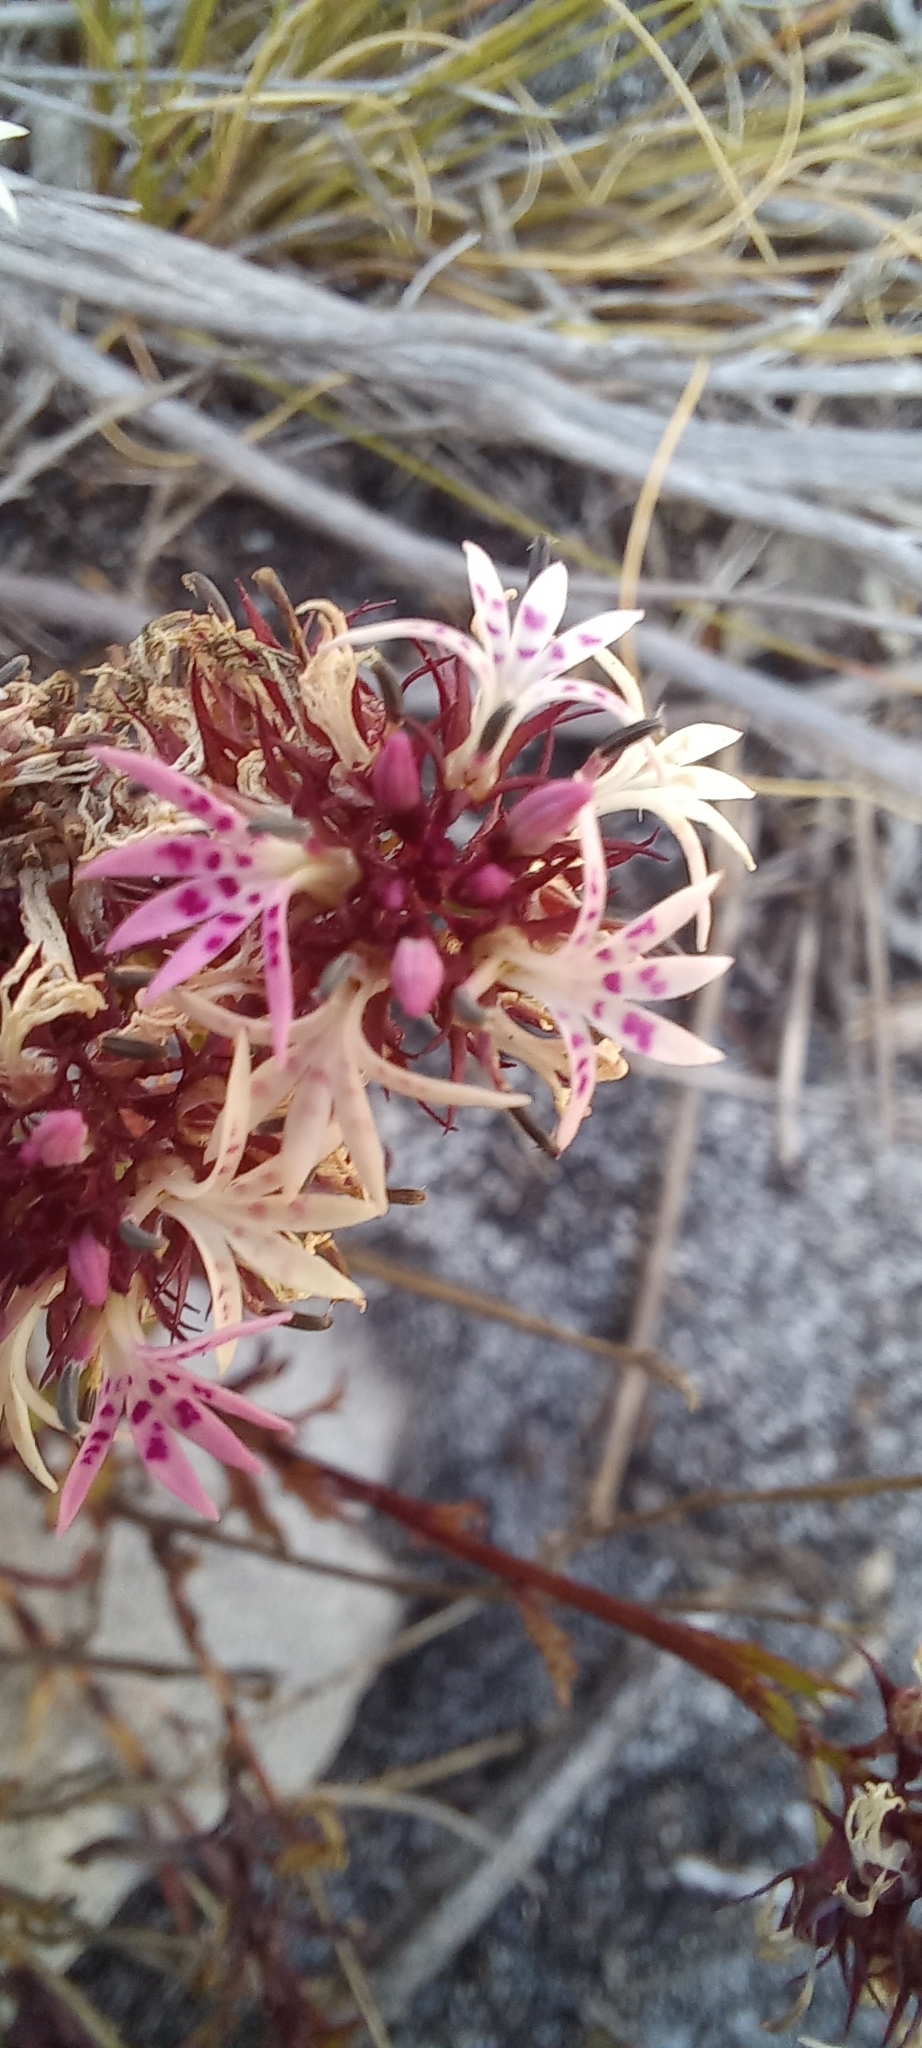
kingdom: Plantae
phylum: Tracheophyta
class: Magnoliopsida
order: Asterales
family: Campanulaceae
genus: Lobelia
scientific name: Lobelia jasionoides
